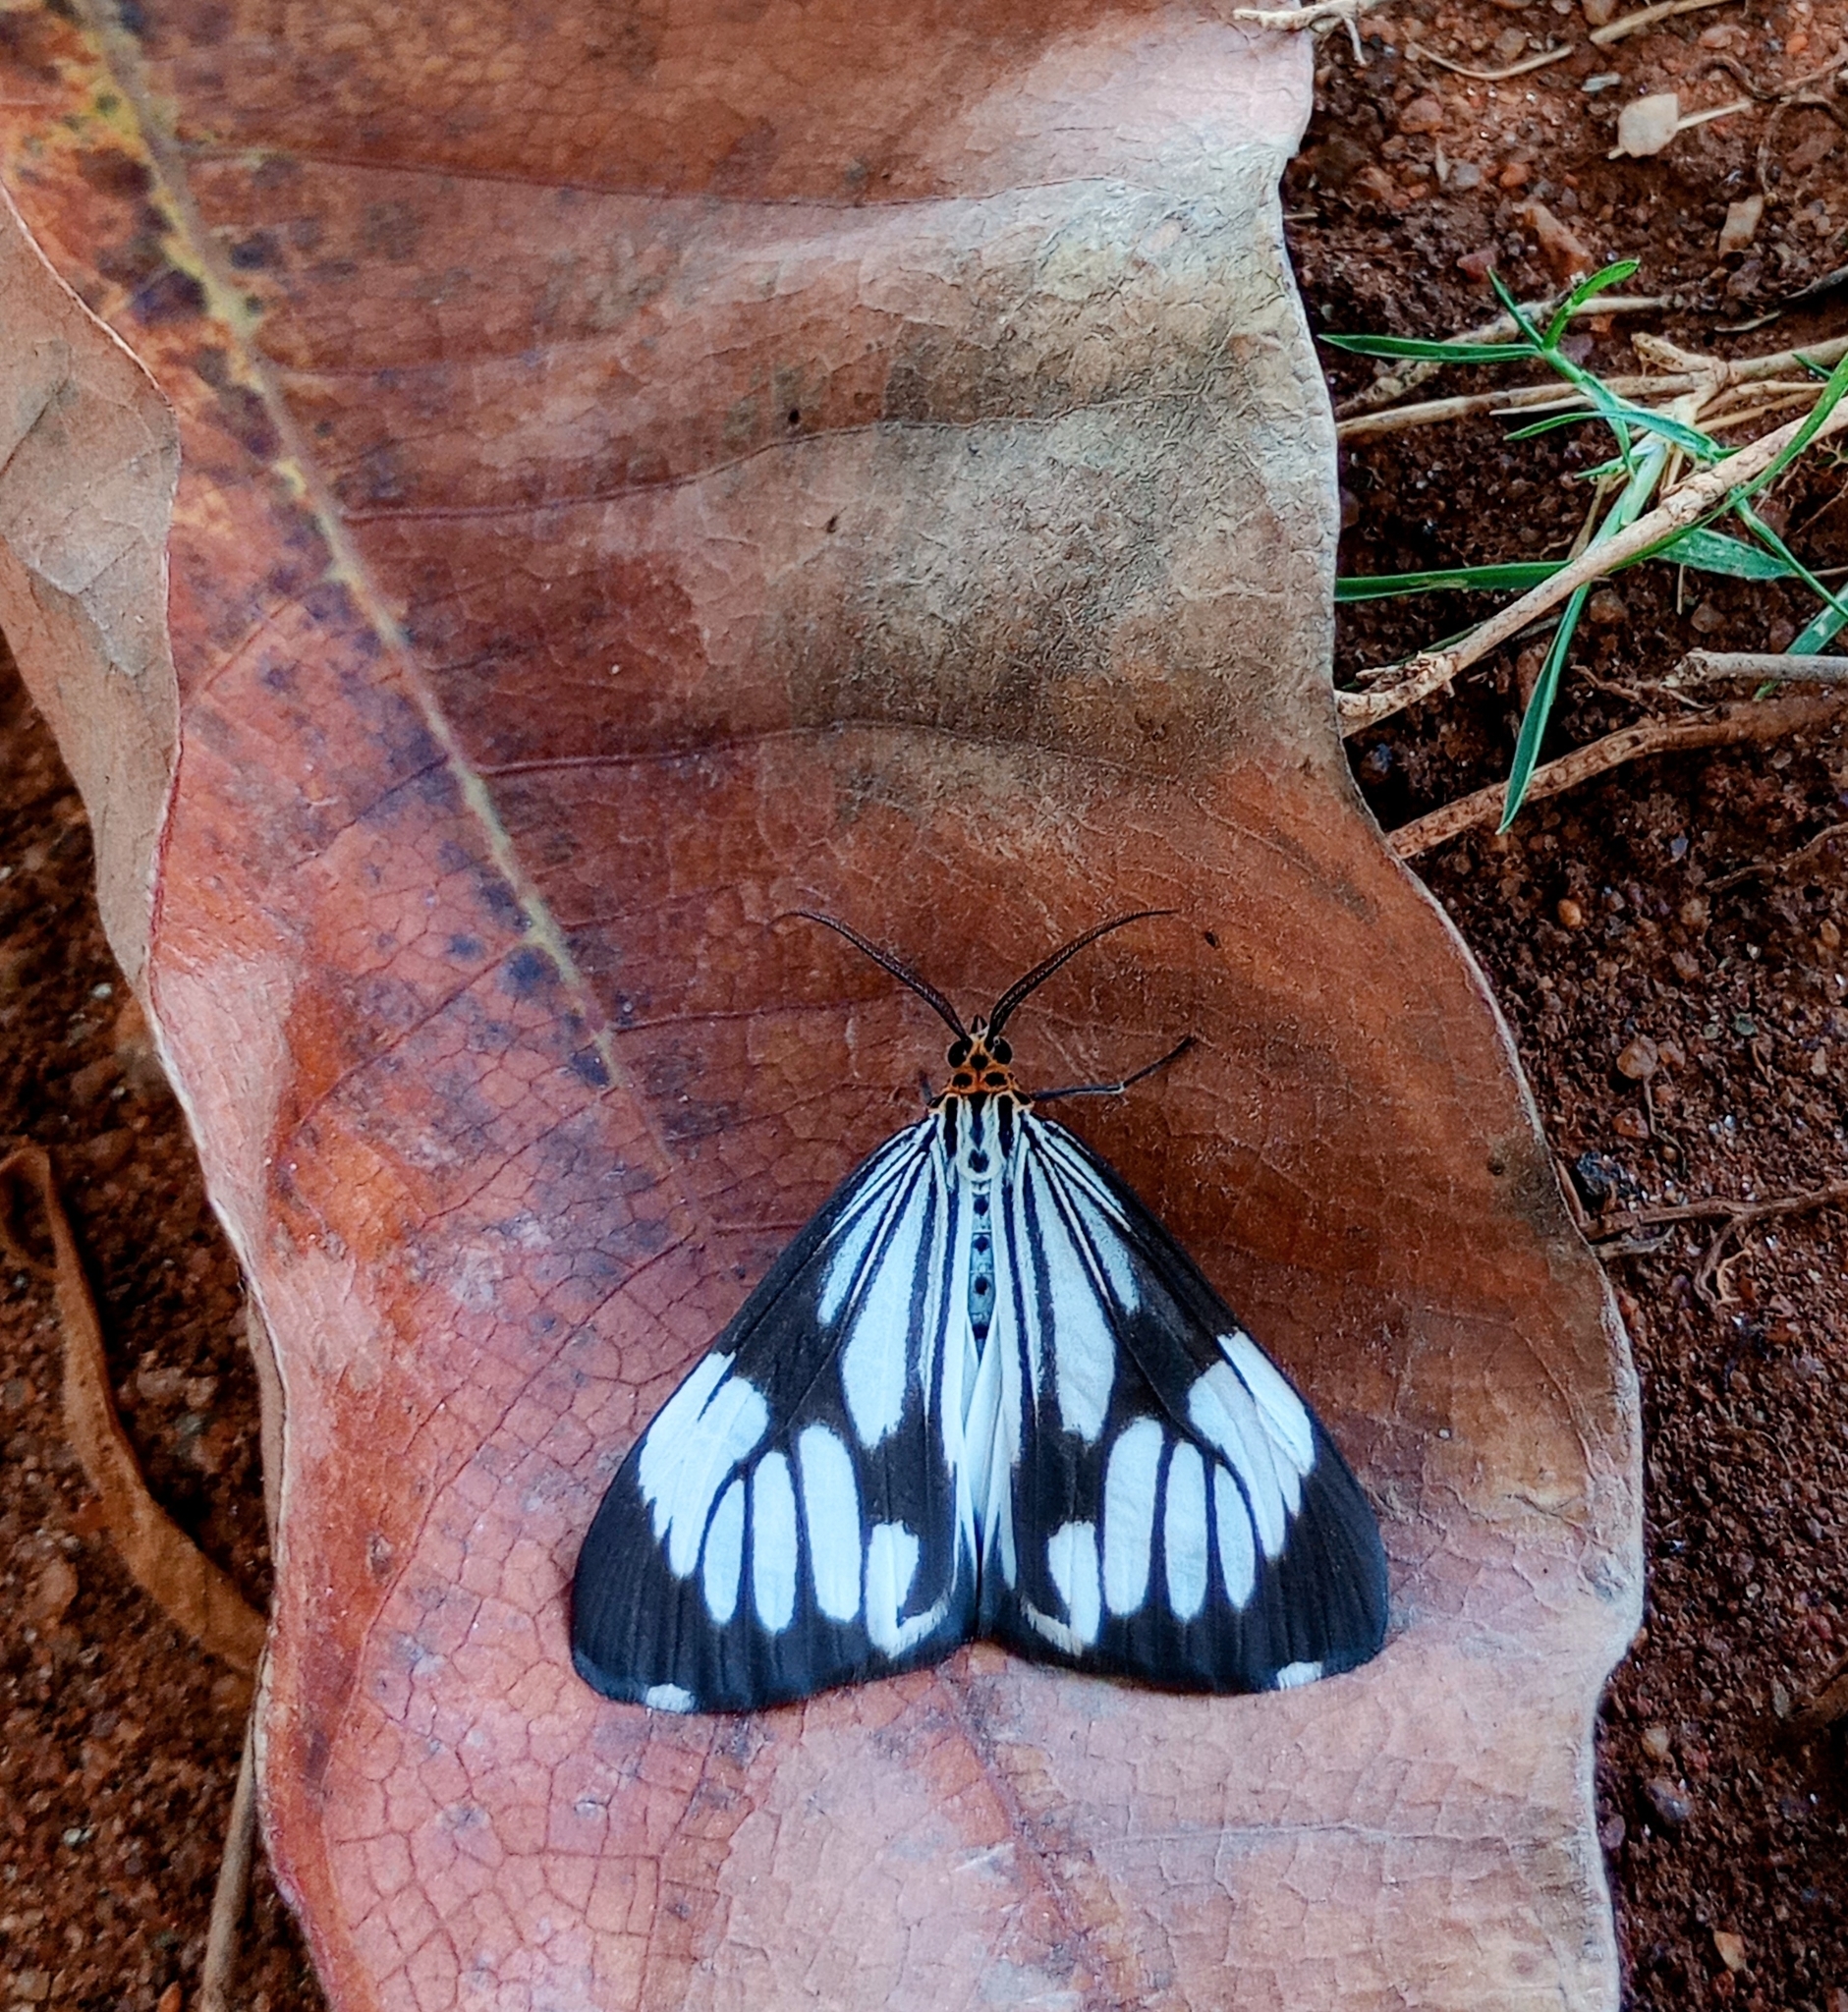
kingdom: Animalia
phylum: Arthropoda
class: Insecta
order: Lepidoptera
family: Erebidae
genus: Nyctemera
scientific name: Nyctemera coleta
